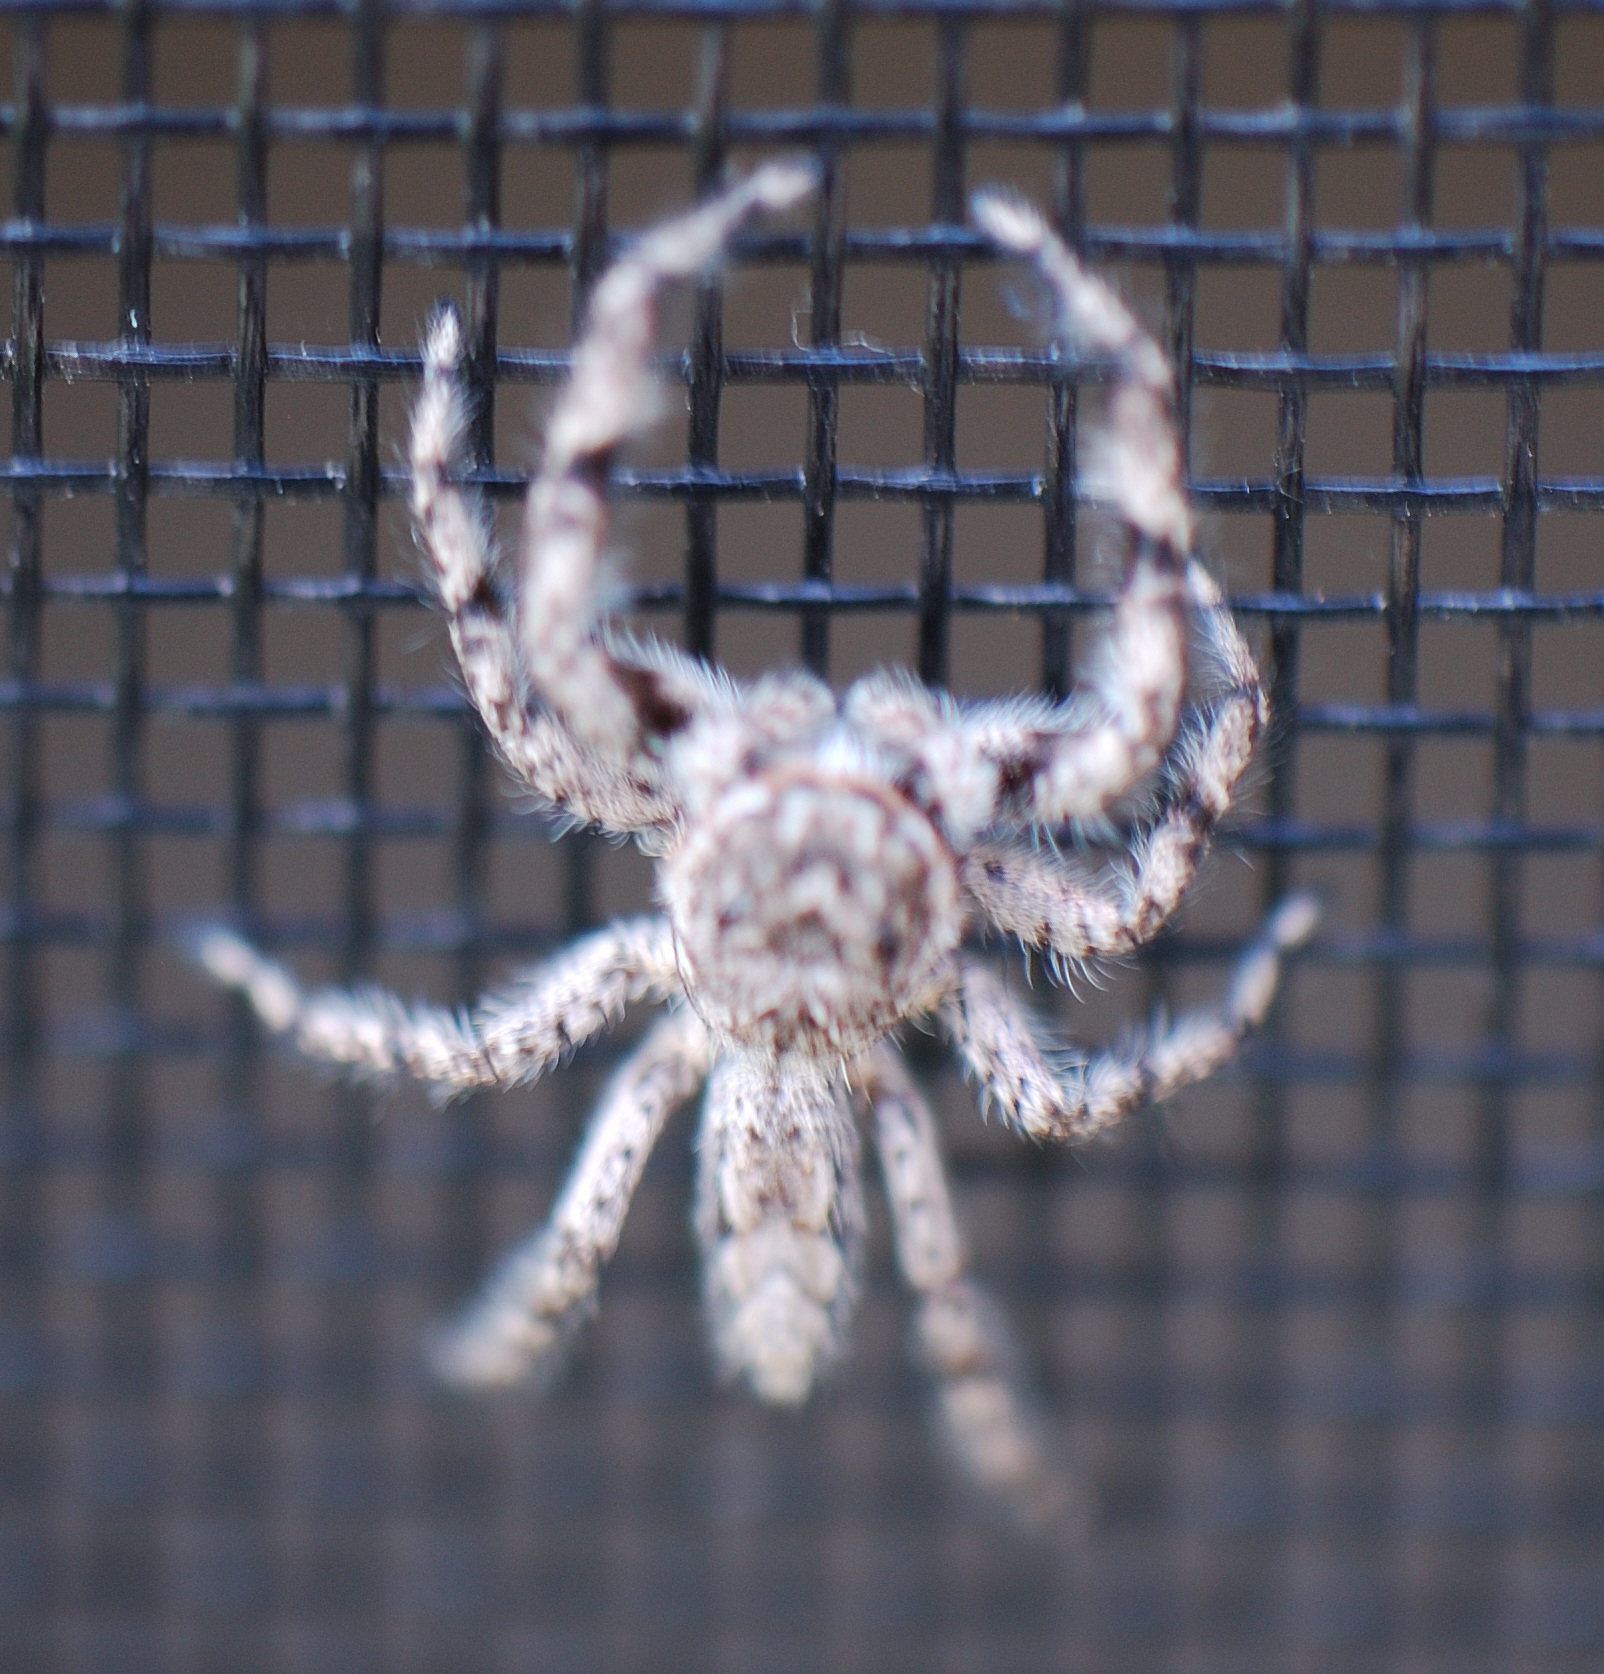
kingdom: Animalia
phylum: Arthropoda
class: Arachnida
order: Araneae
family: Salticidae
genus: Platycryptus
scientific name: Platycryptus undatus
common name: Tan jumping spider
